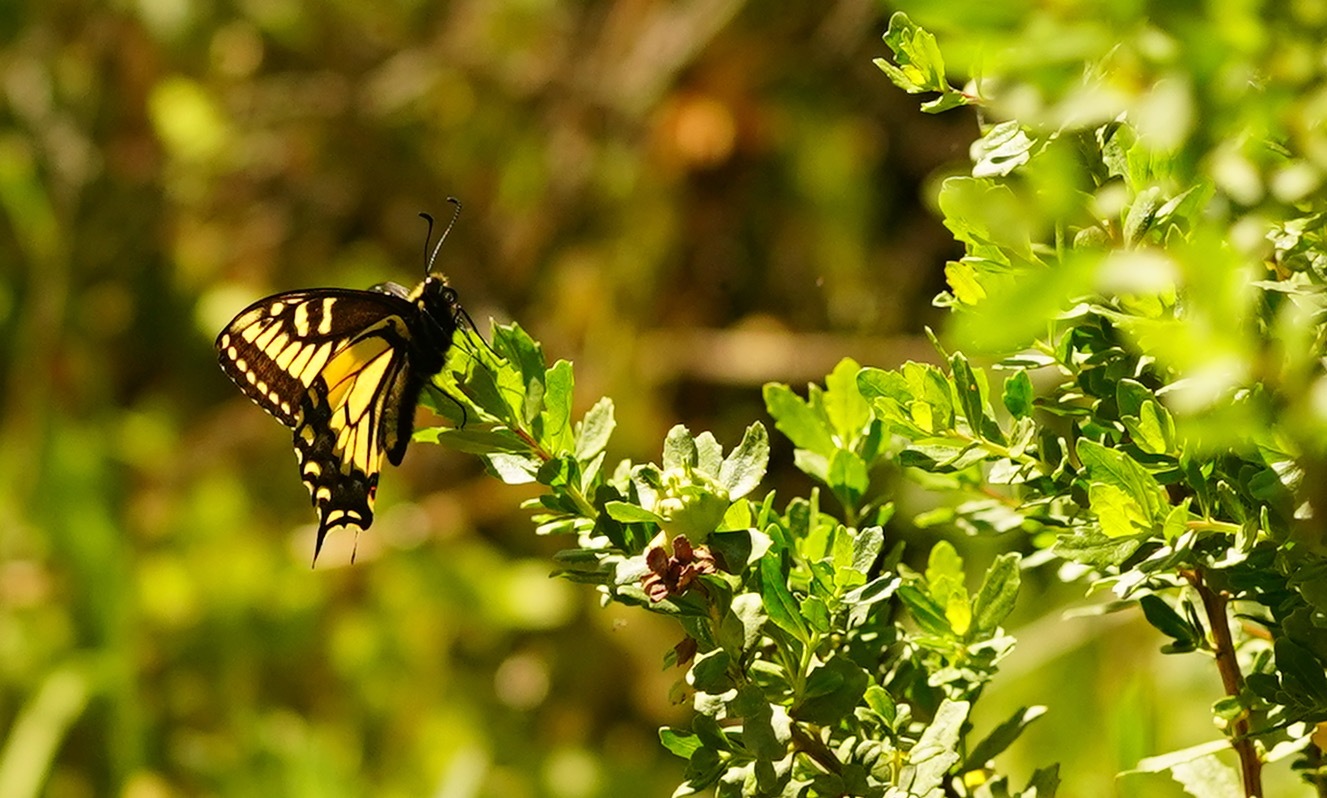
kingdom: Animalia
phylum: Arthropoda
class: Insecta
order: Lepidoptera
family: Papilionidae
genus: Papilio
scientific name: Papilio zelicaon
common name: Anise swallowtail
